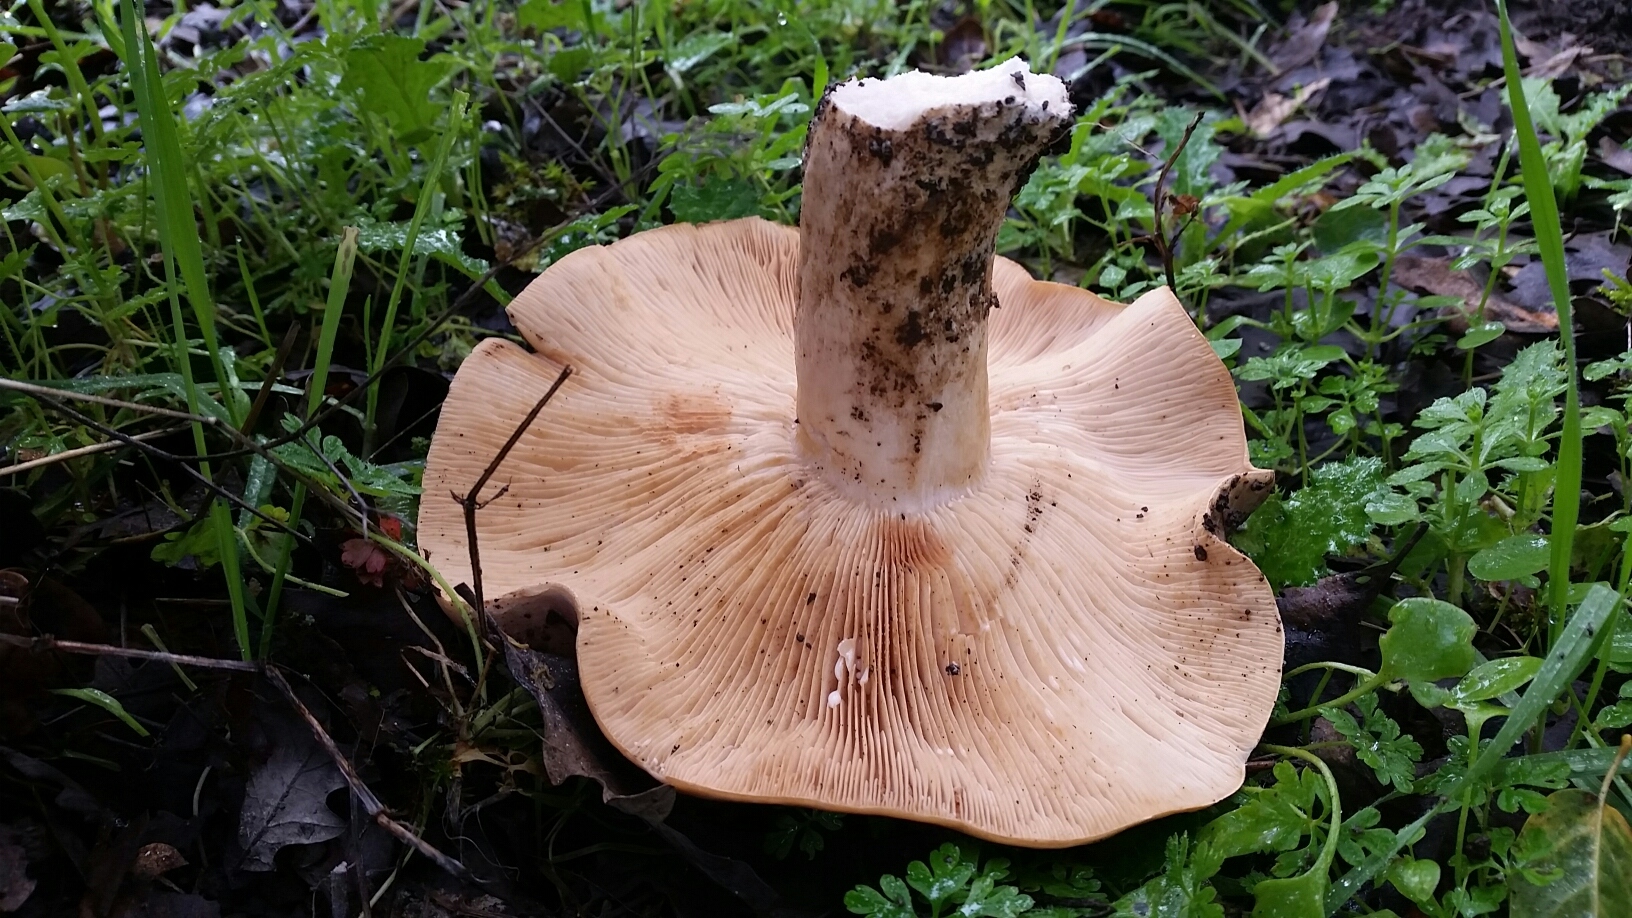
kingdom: Fungi
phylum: Basidiomycota
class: Agaricomycetes
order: Russulales
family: Russulaceae
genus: Lactarius
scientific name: Lactarius argillaceifolius
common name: Clay-gilled milkcap
